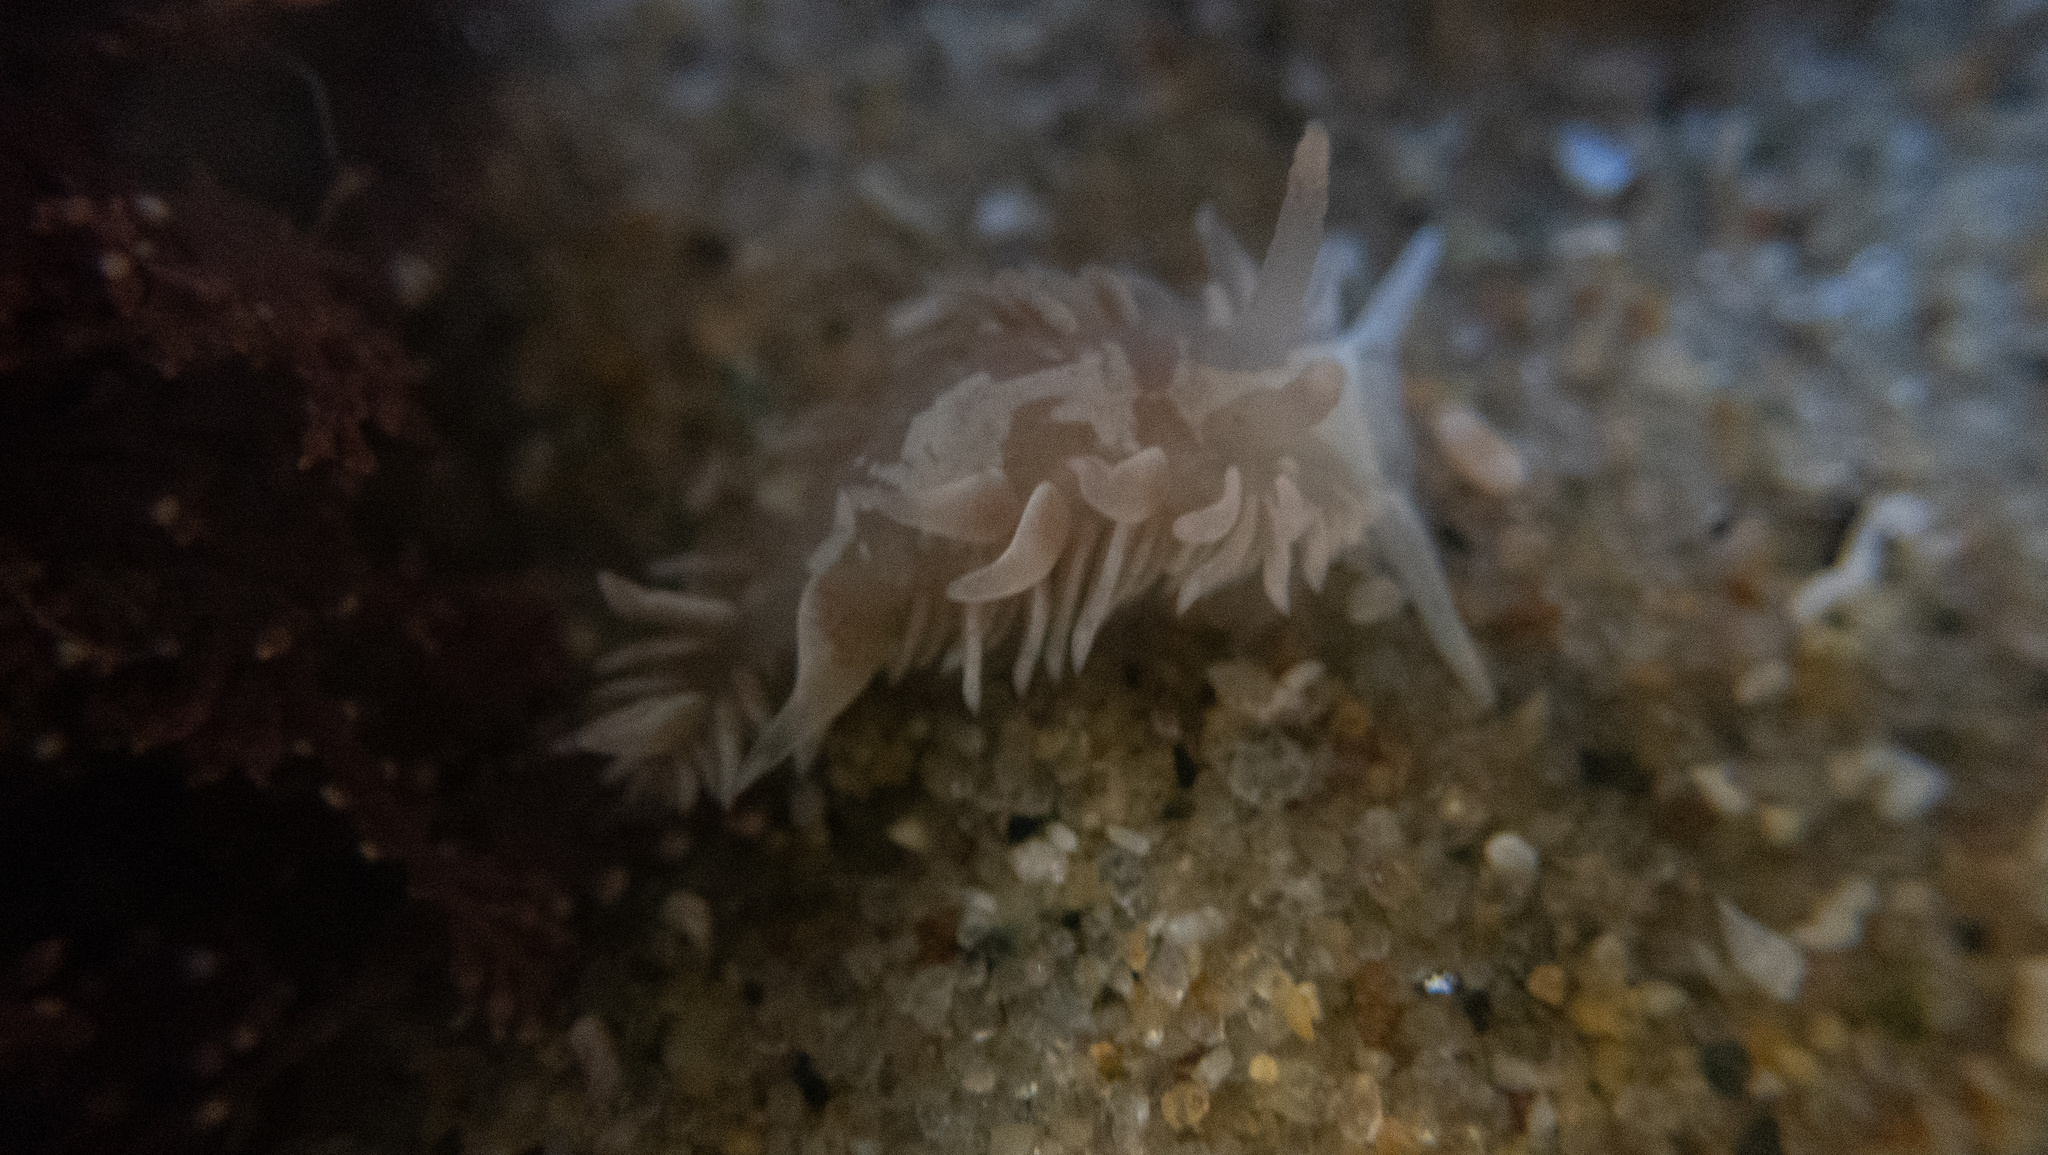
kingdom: Animalia
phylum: Mollusca
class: Gastropoda
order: Nudibranchia
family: Aeolidiidae
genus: Aeolidia
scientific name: Aeolidia loui
